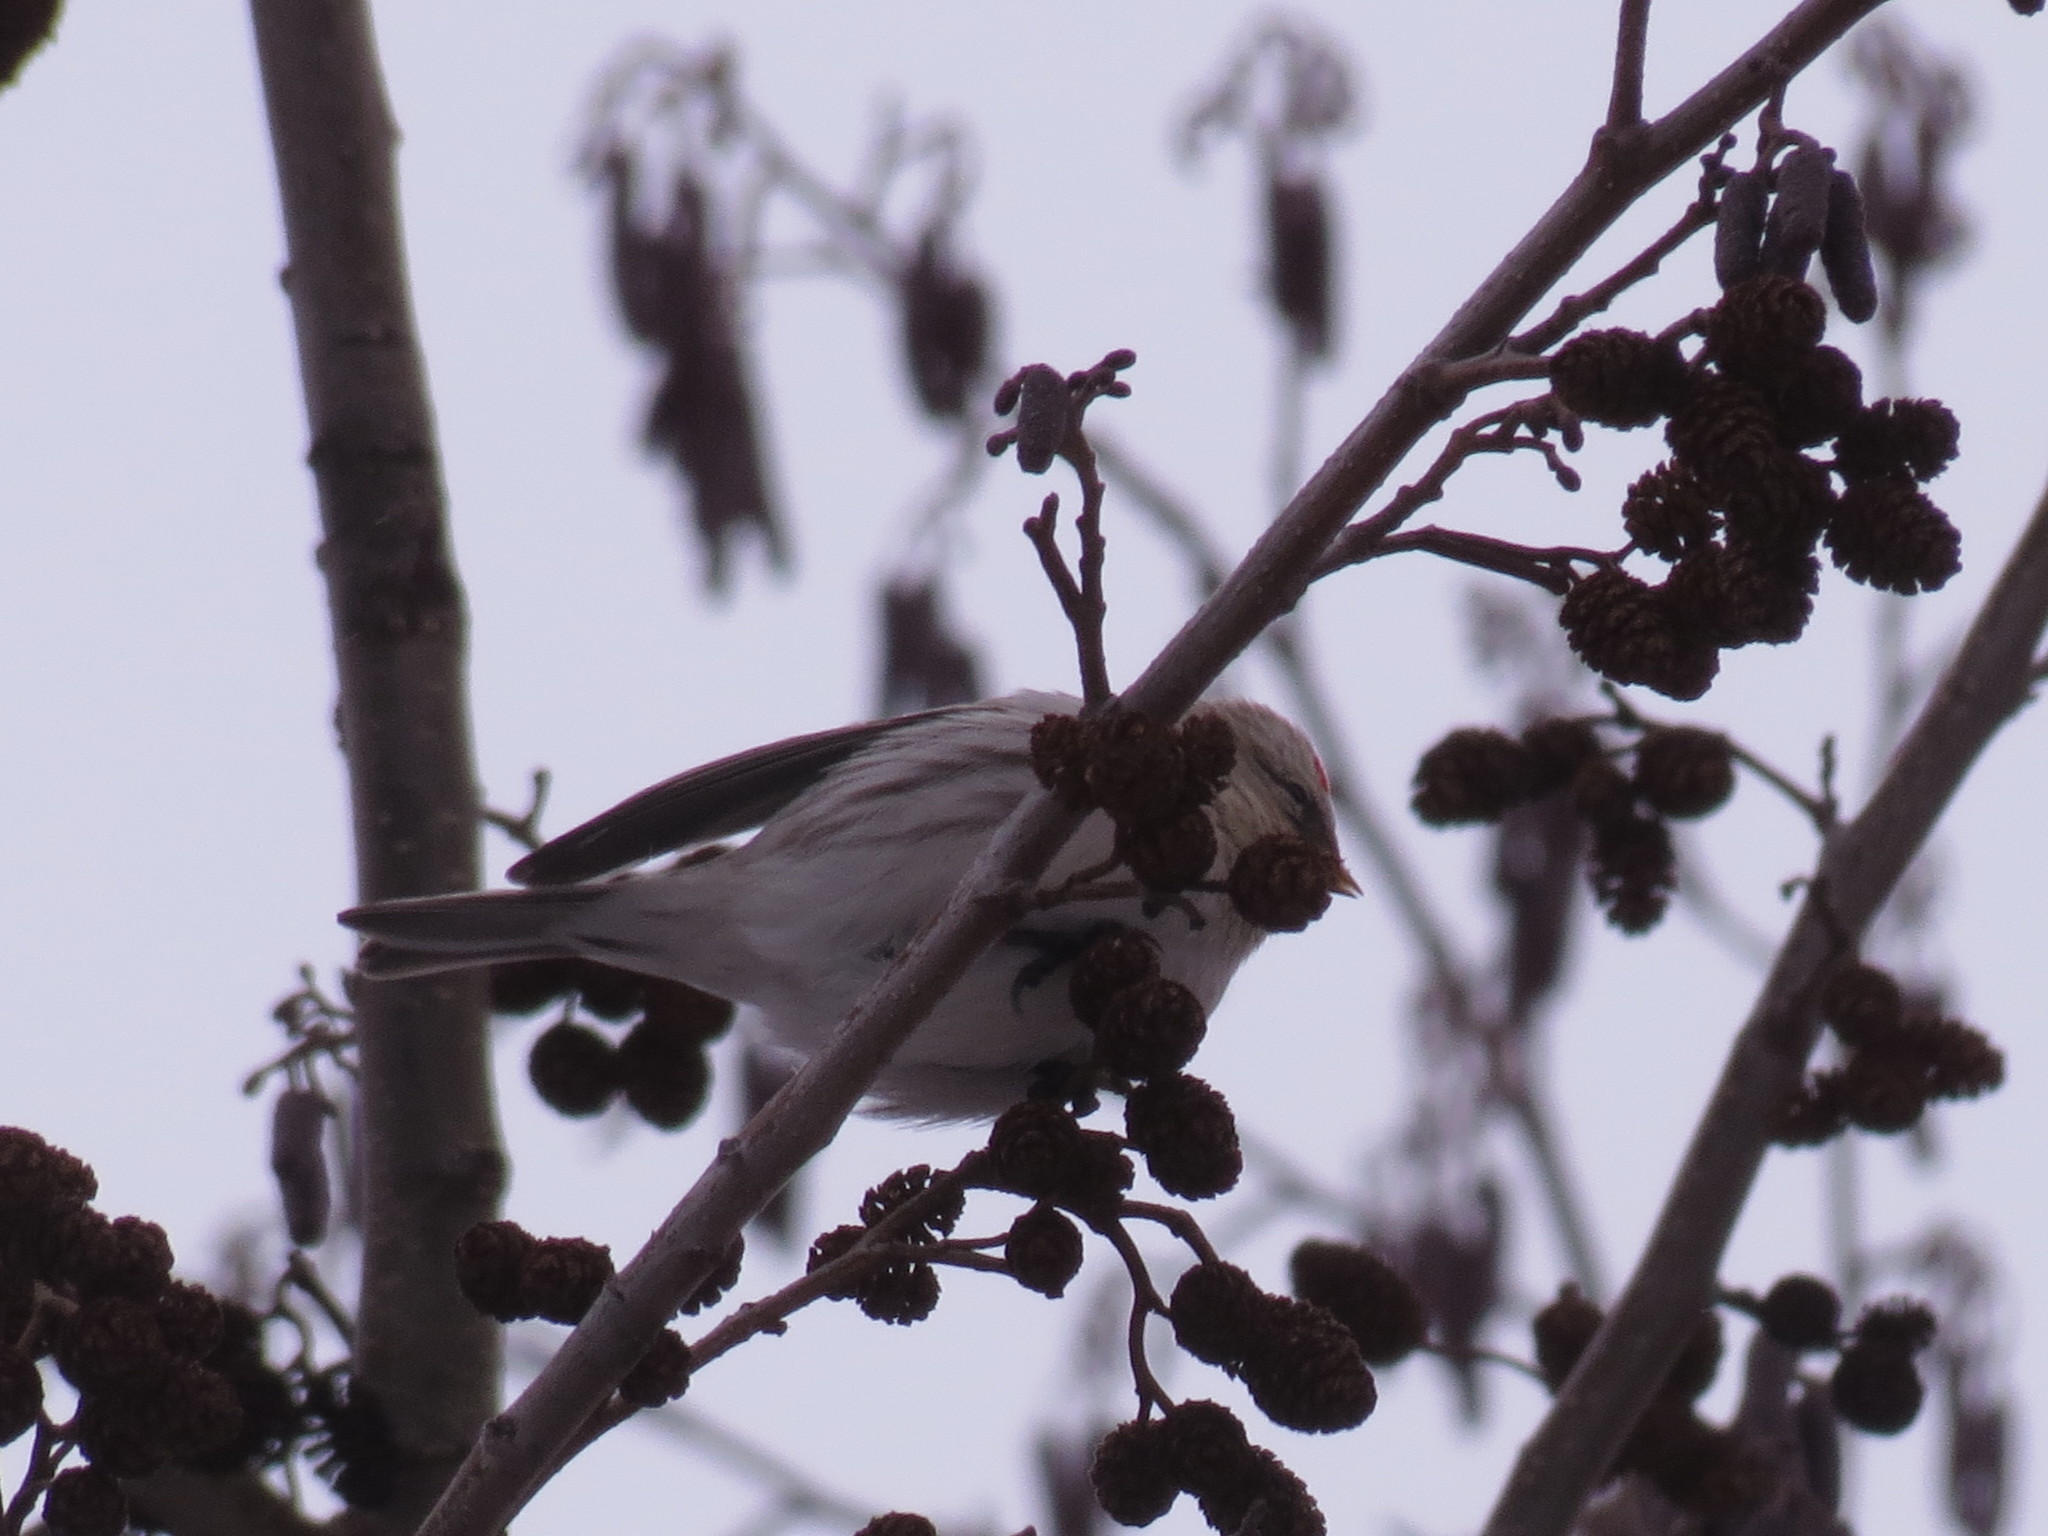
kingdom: Animalia
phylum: Chordata
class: Aves
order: Passeriformes
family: Fringillidae
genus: Acanthis
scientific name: Acanthis flammea
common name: Common redpoll
